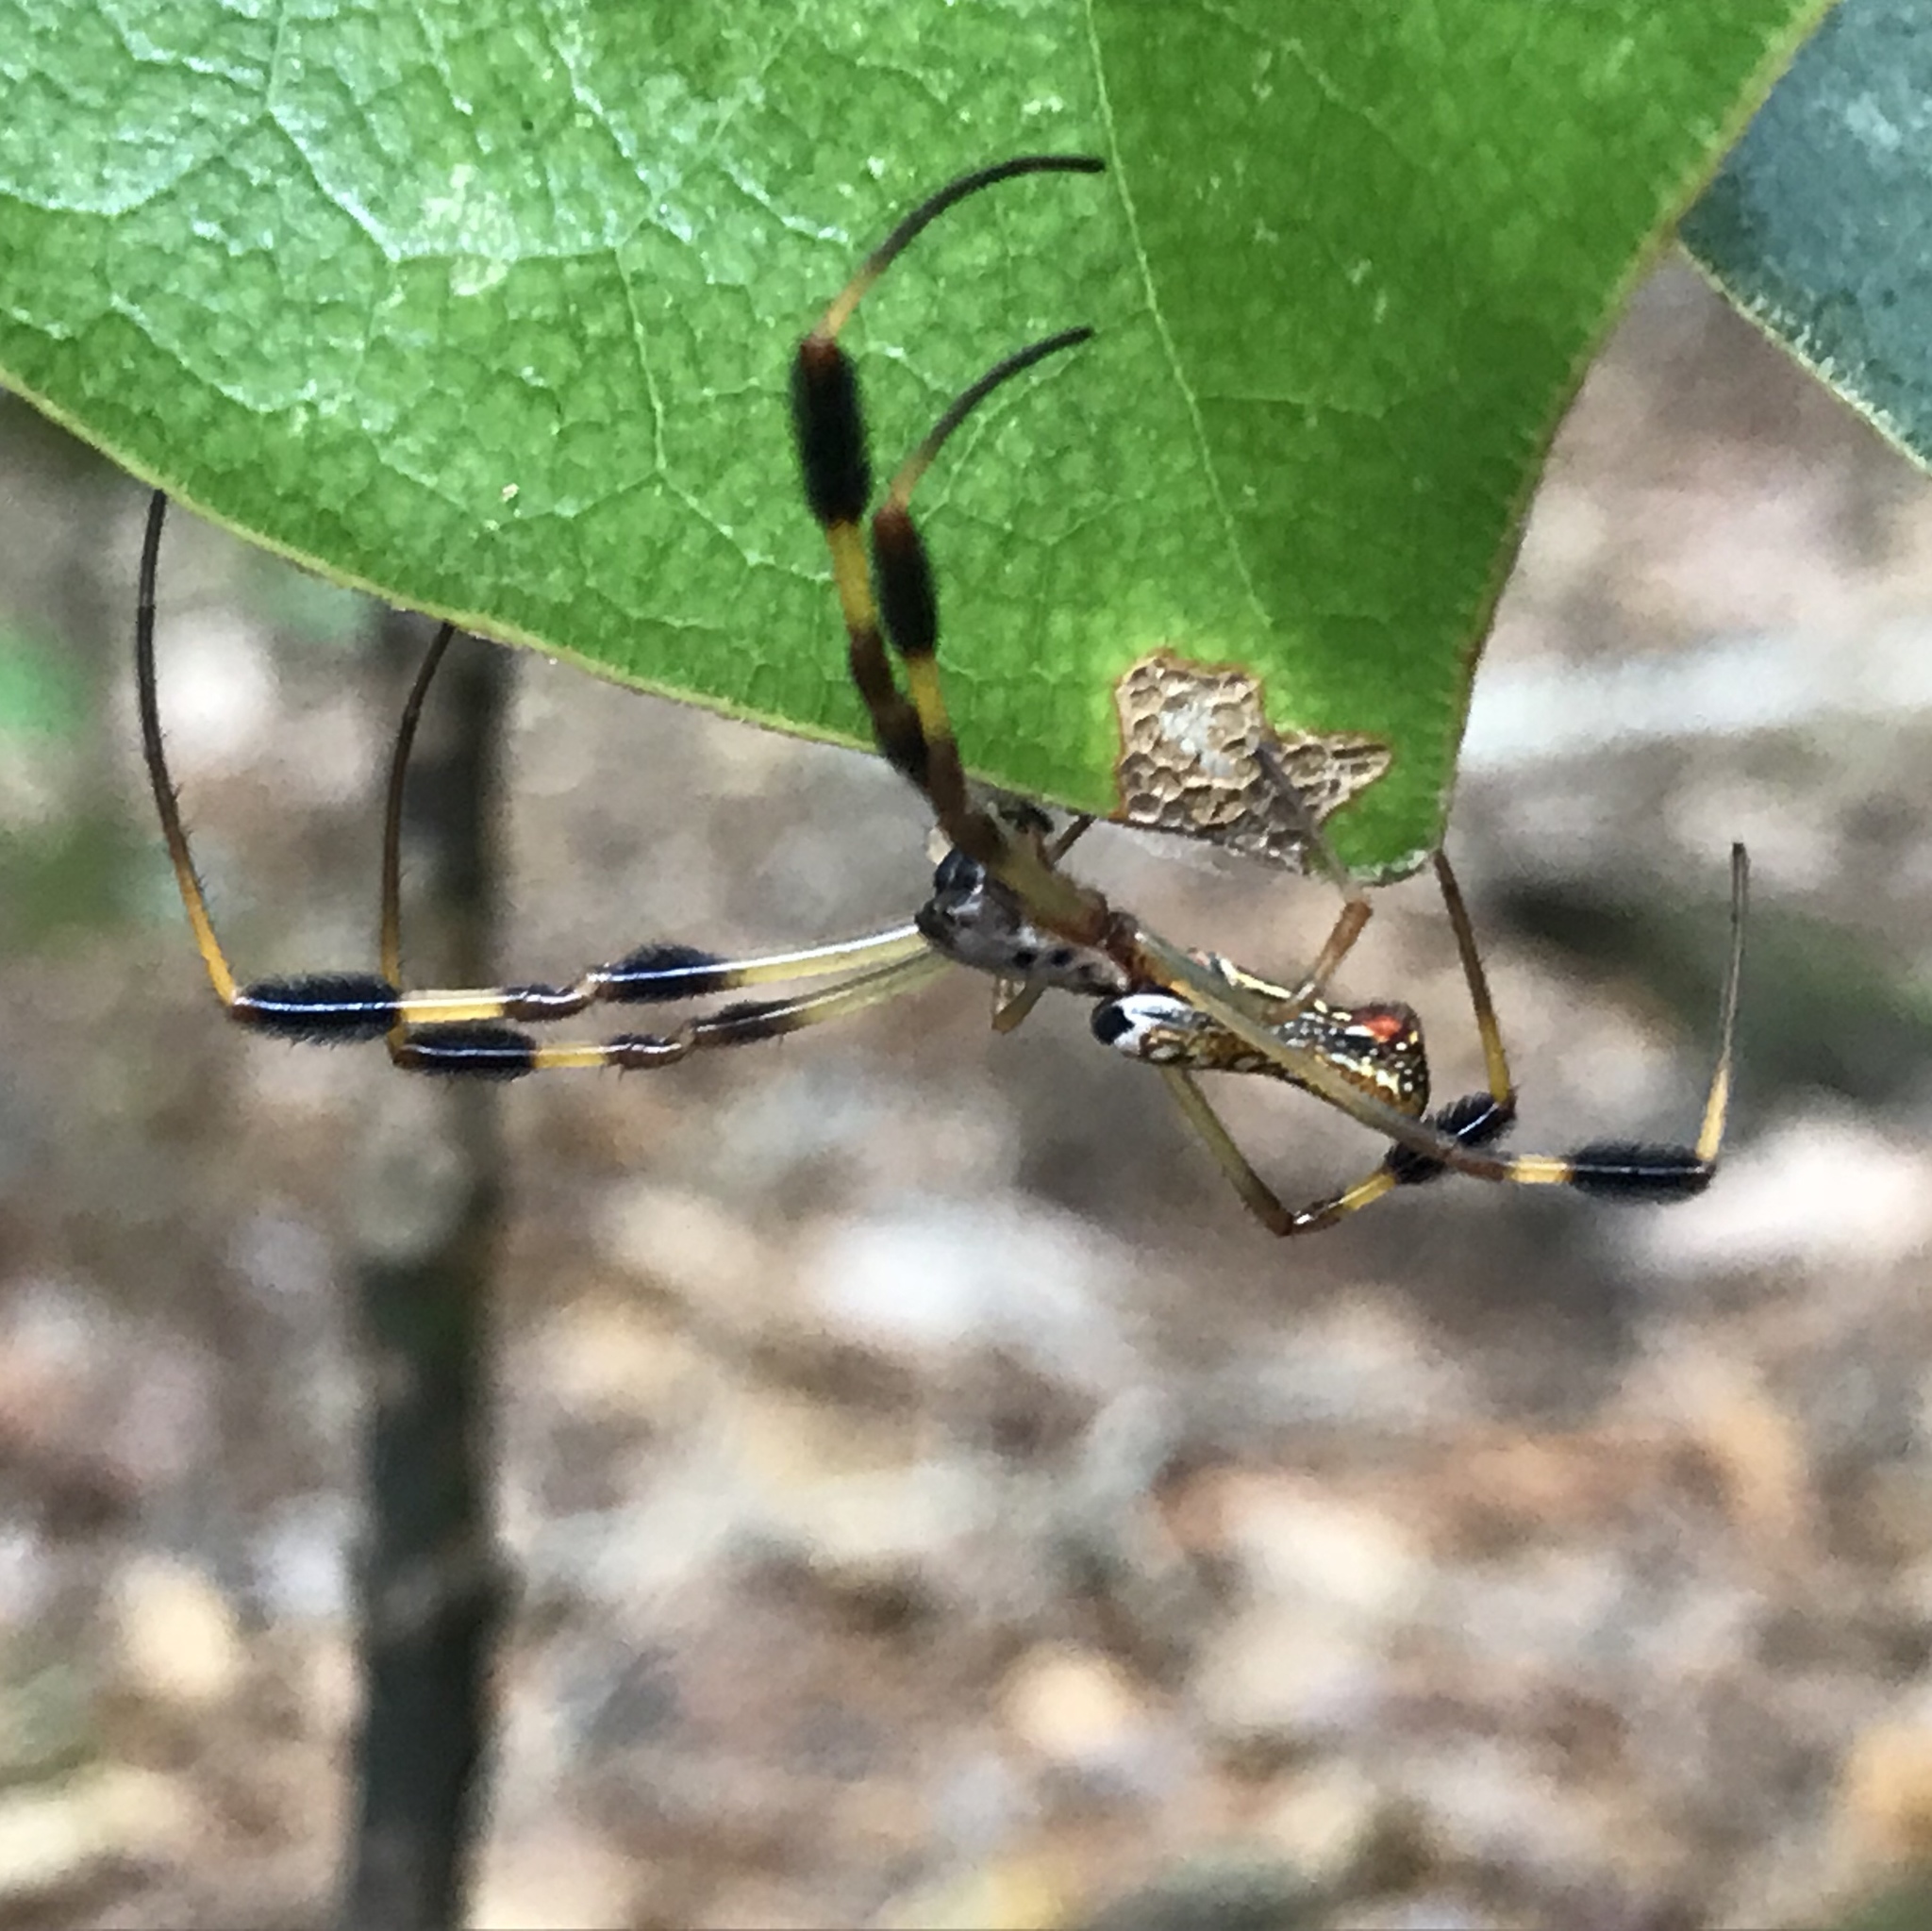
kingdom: Animalia
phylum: Arthropoda
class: Arachnida
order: Araneae
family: Araneidae
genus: Trichonephila
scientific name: Trichonephila clavipes
